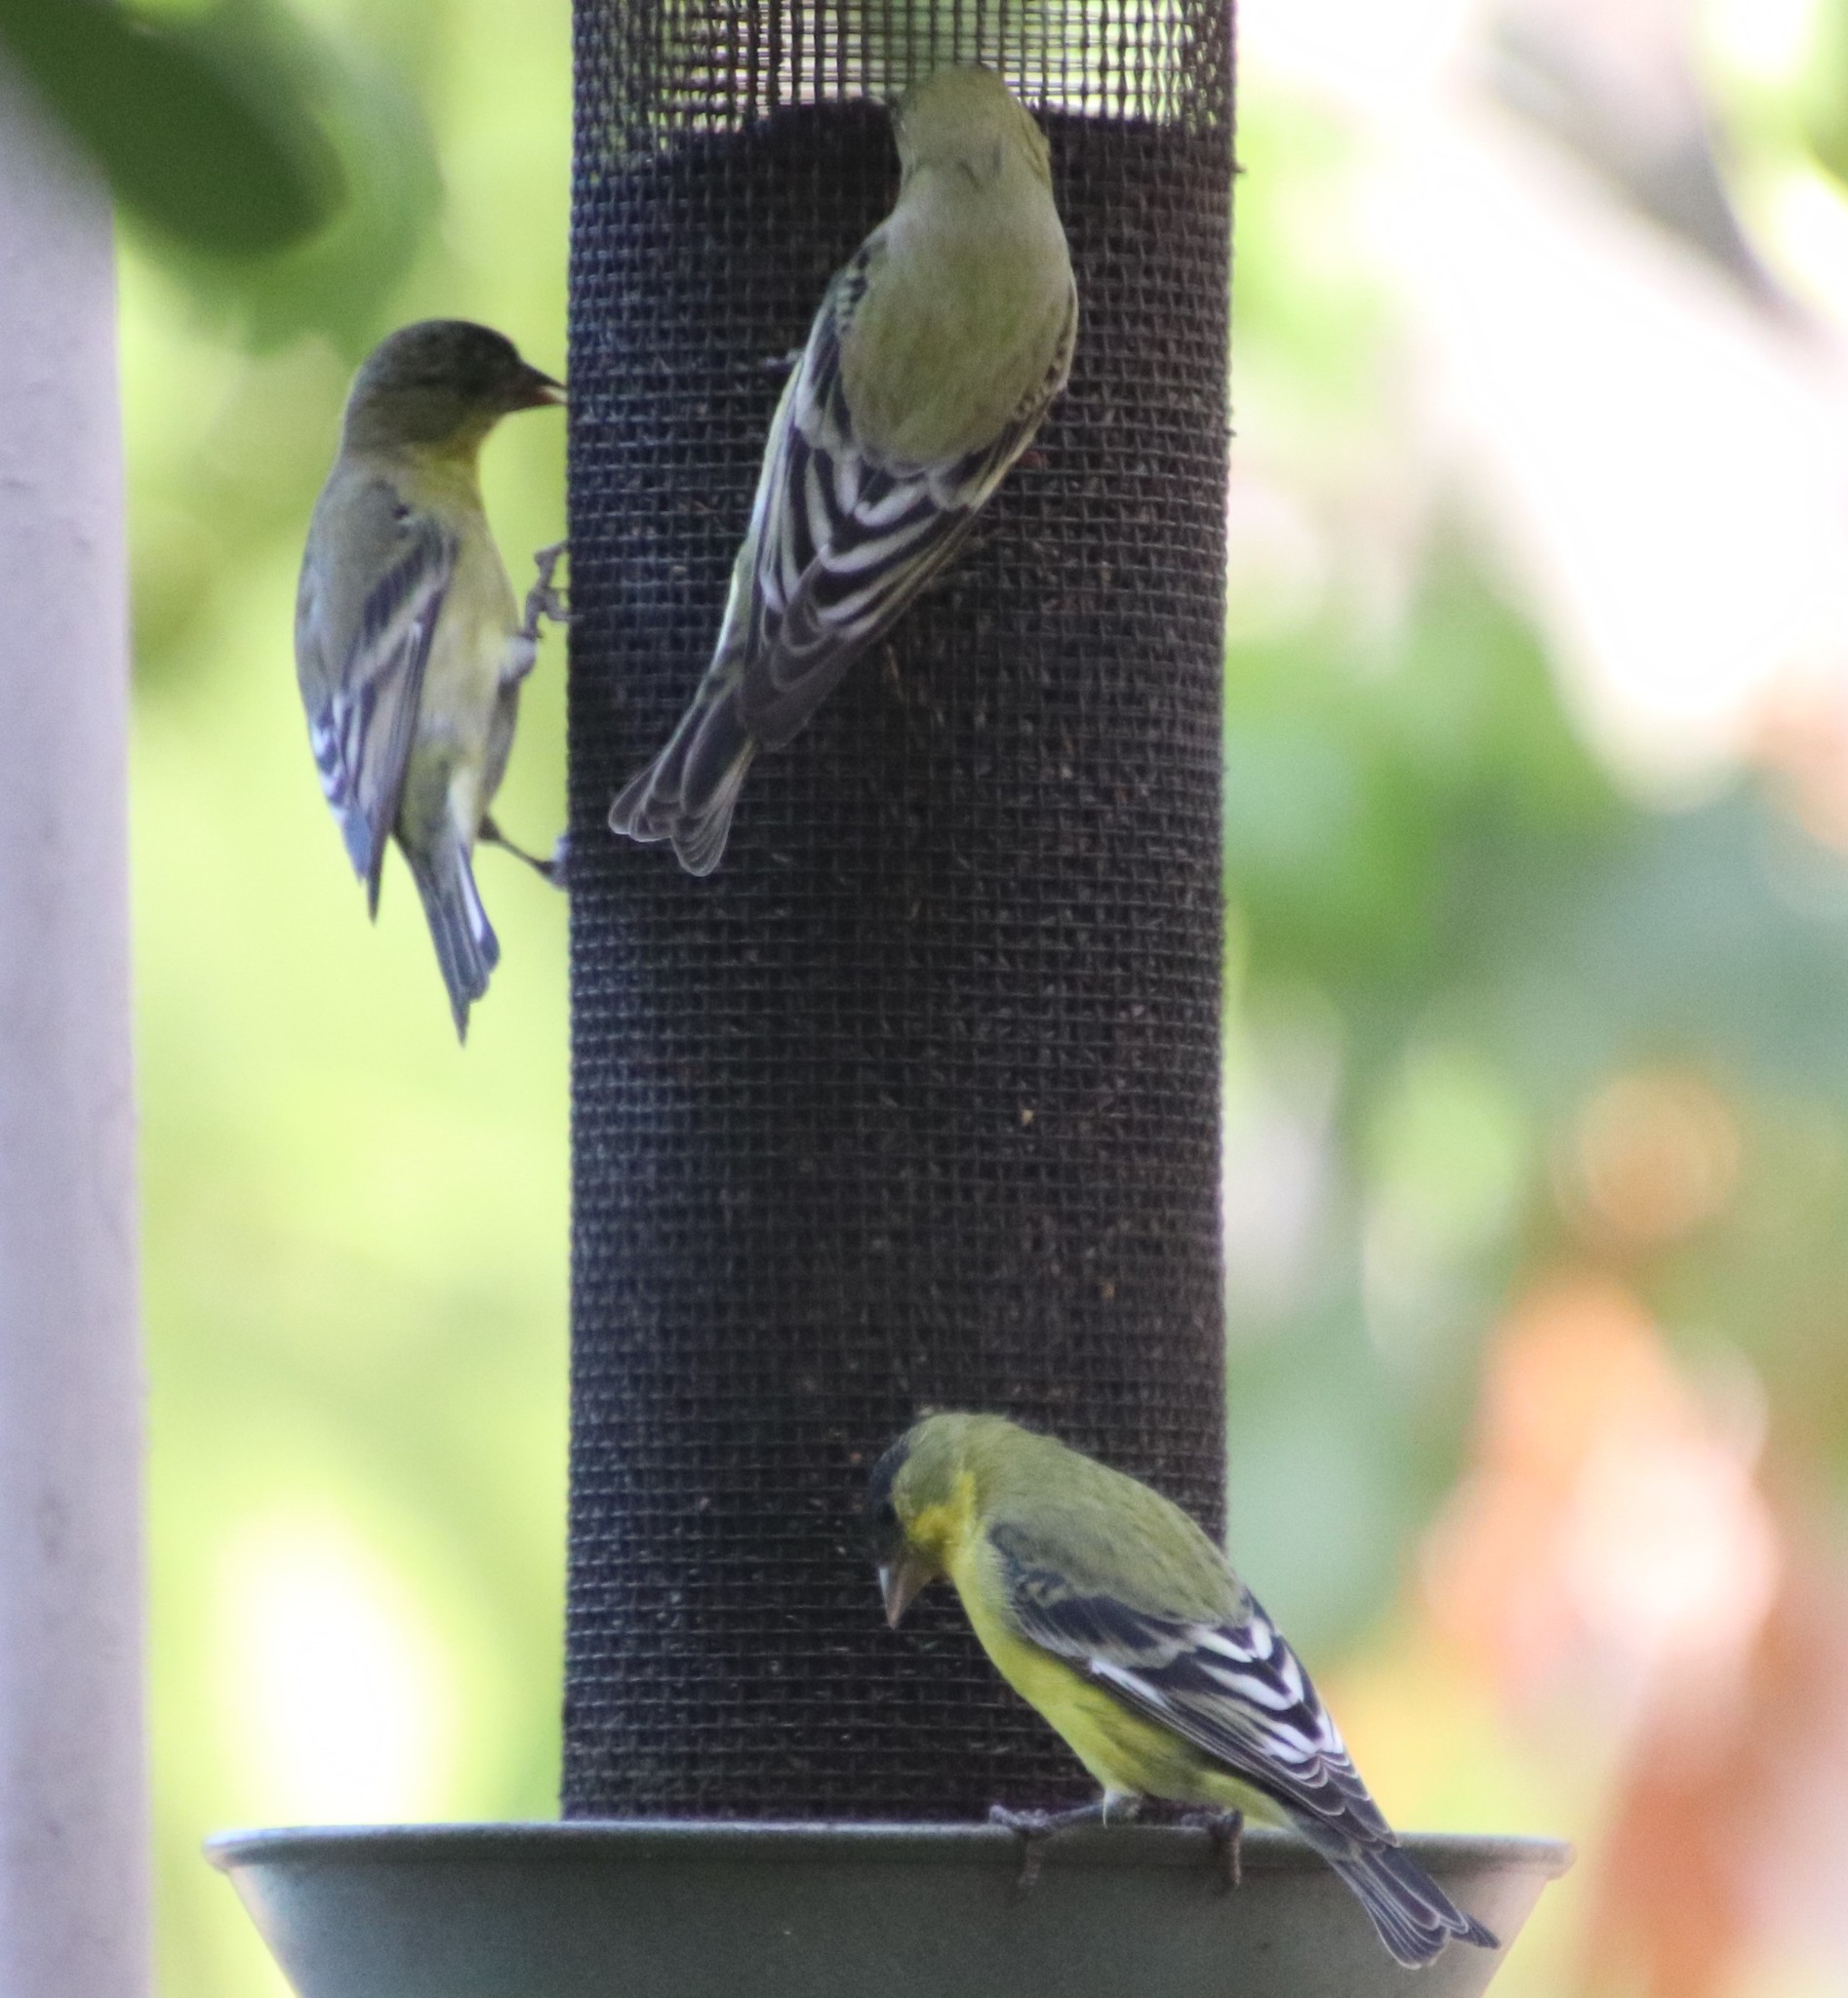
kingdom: Animalia
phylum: Chordata
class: Aves
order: Passeriformes
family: Fringillidae
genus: Spinus
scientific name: Spinus psaltria
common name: Lesser goldfinch
